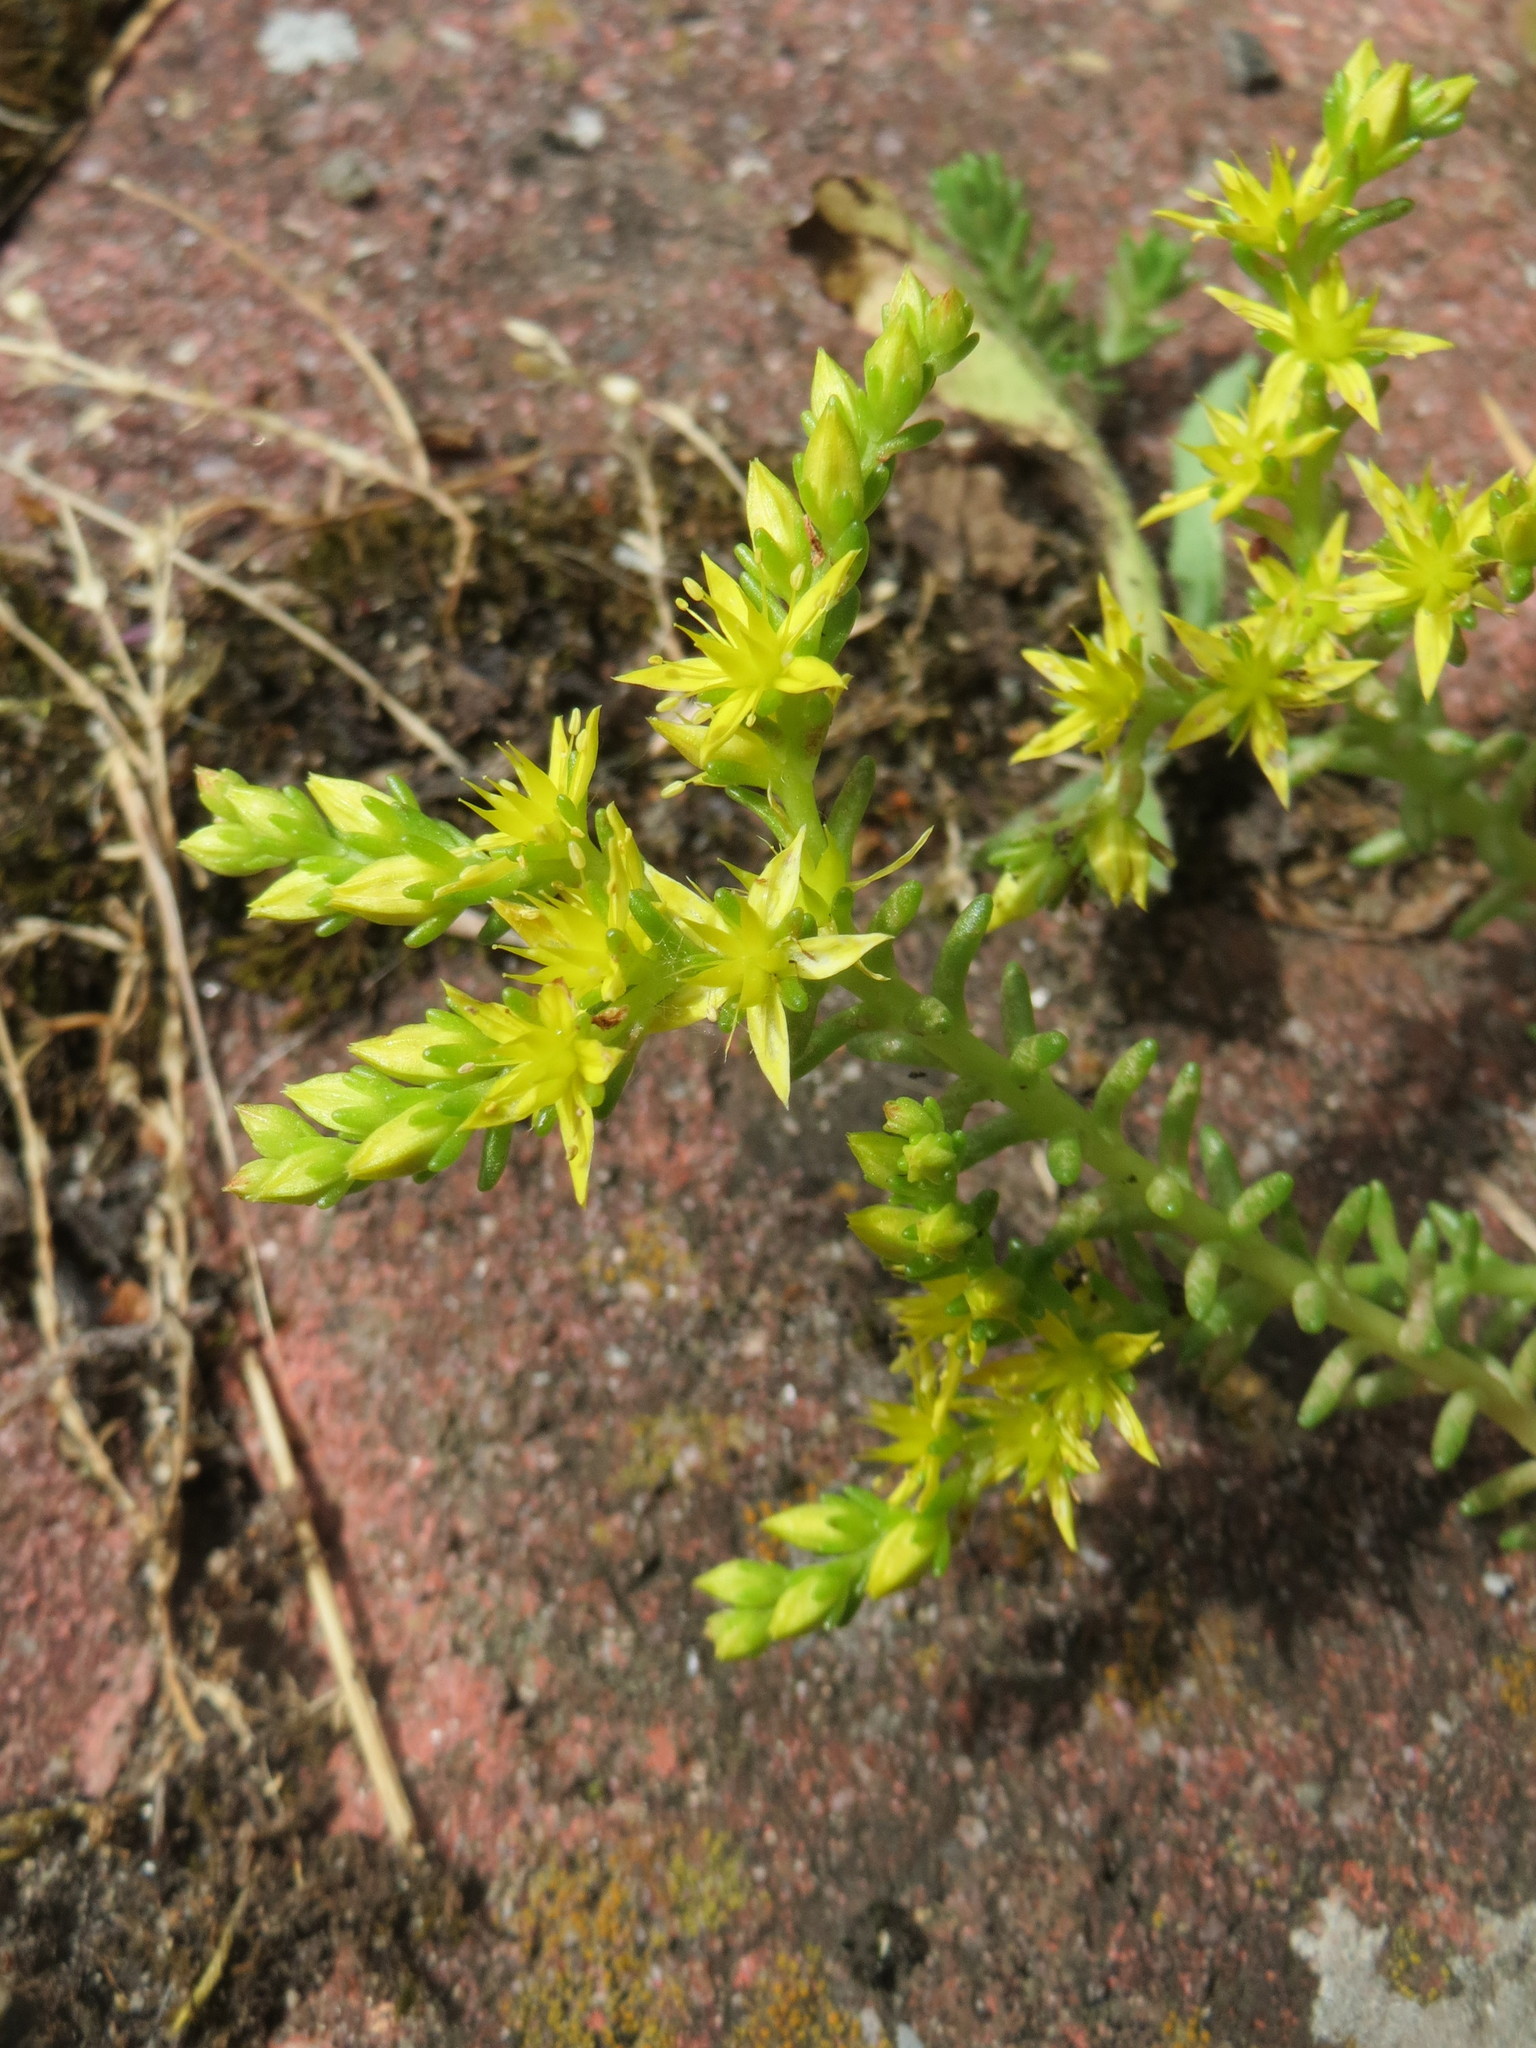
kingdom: Plantae
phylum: Tracheophyta
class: Magnoliopsida
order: Saxifragales
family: Crassulaceae
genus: Sedum
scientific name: Sedum sexangulare
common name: Tasteless stonecrop
